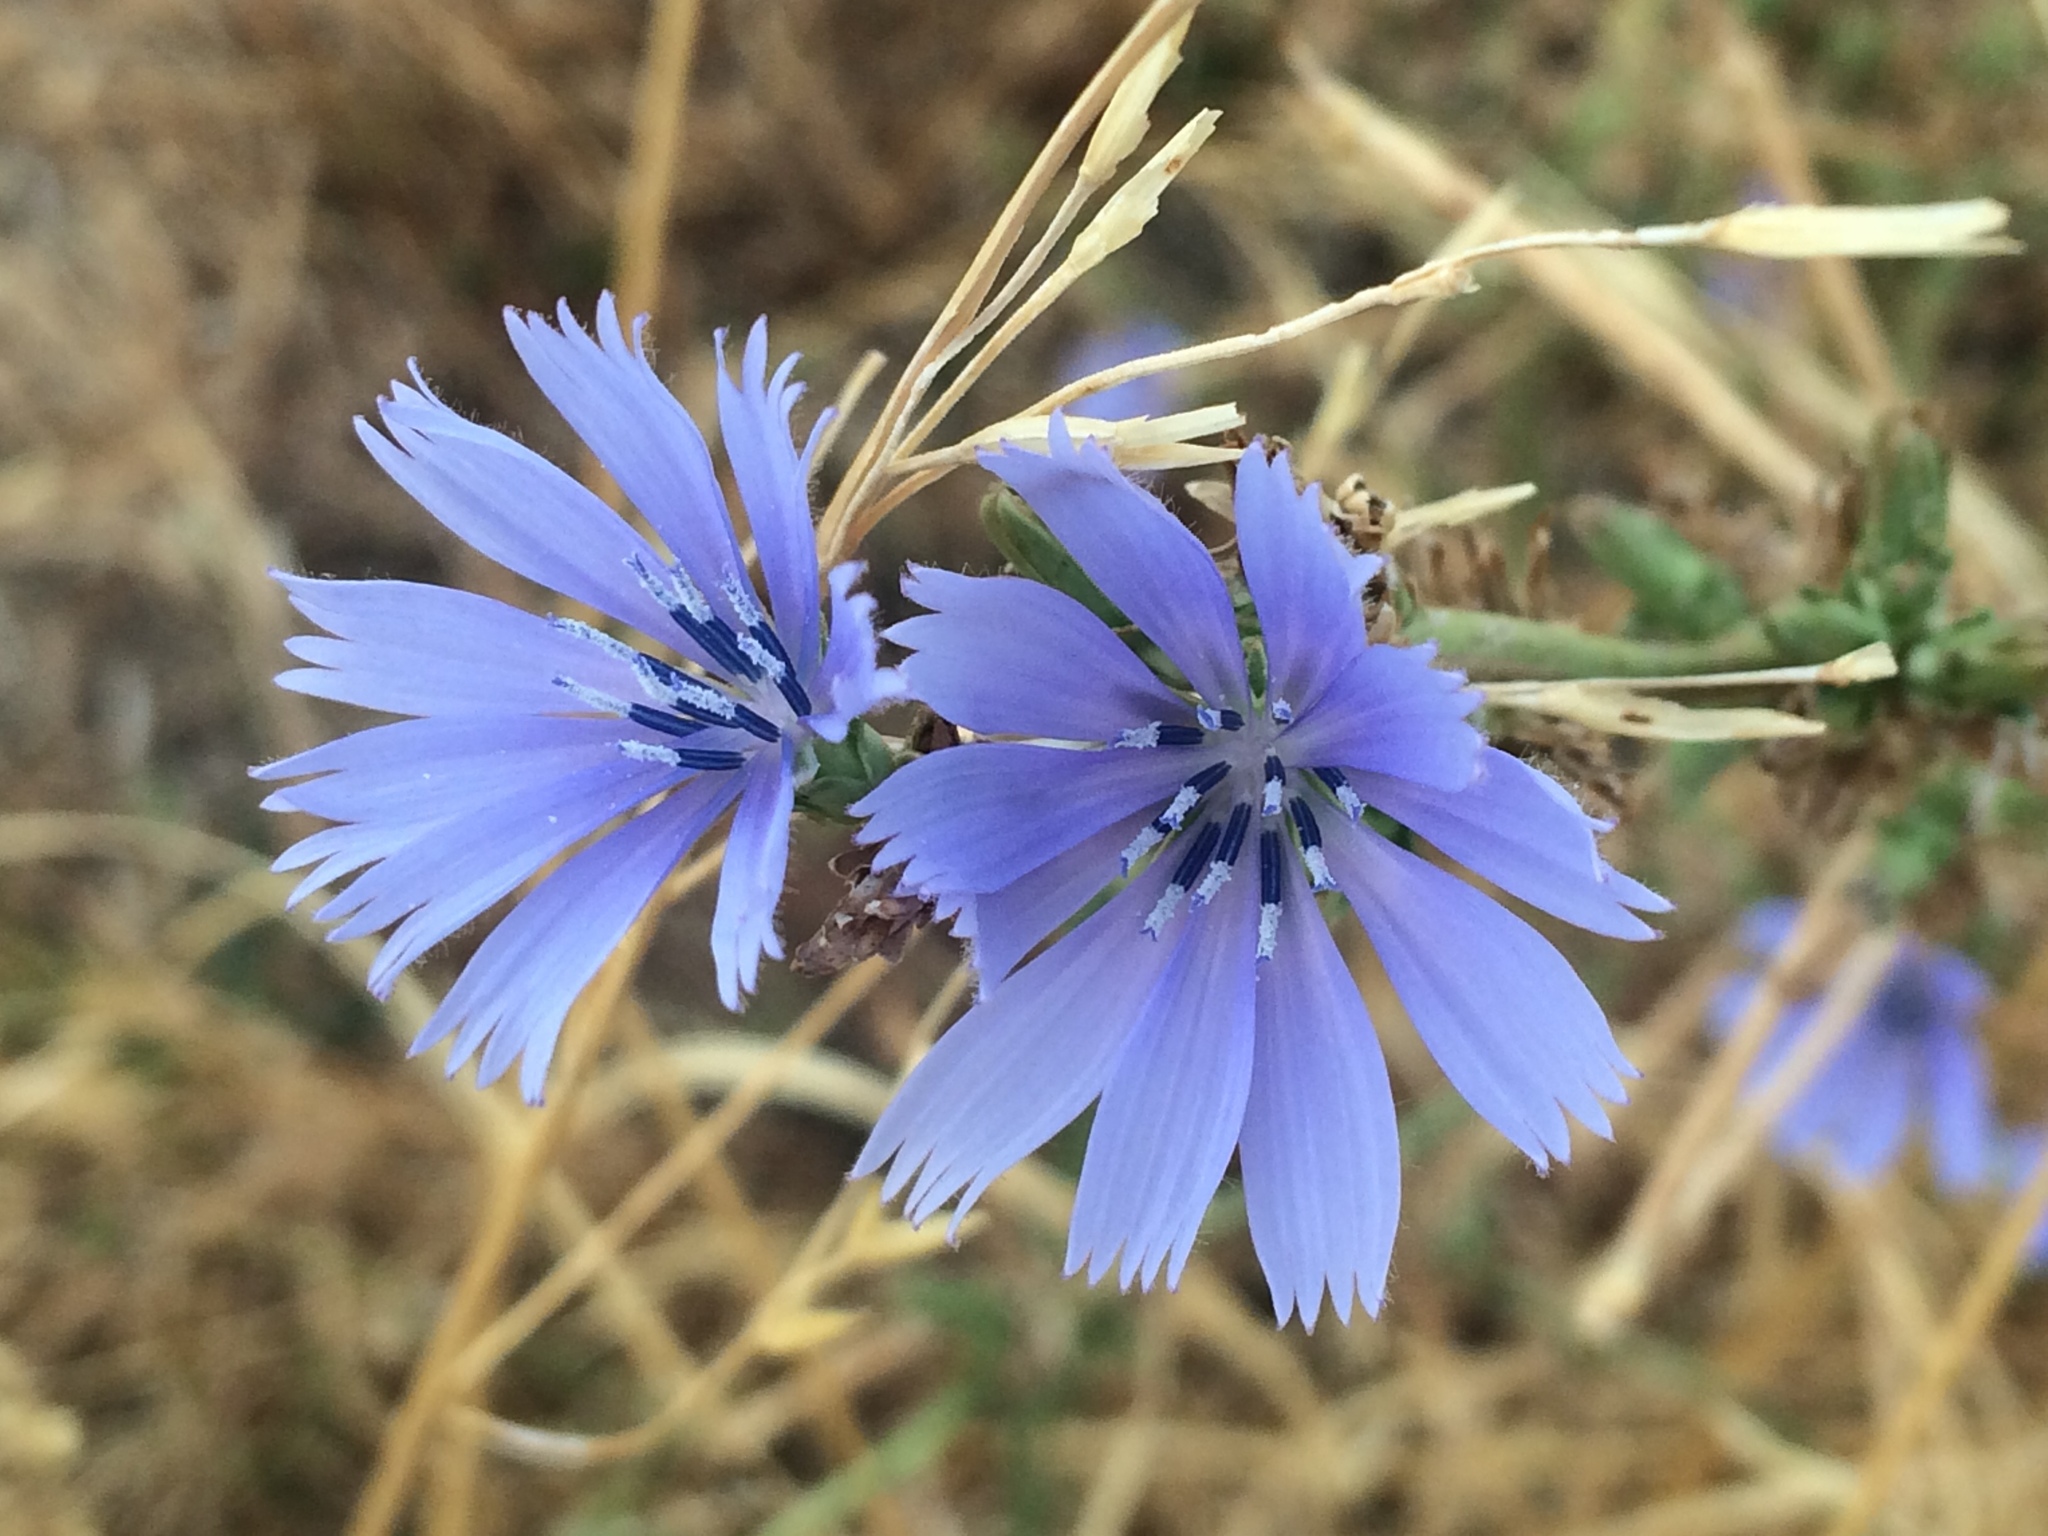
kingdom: Plantae
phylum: Tracheophyta
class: Magnoliopsida
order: Asterales
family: Asteraceae
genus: Cichorium
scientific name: Cichorium intybus
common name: Chicory
